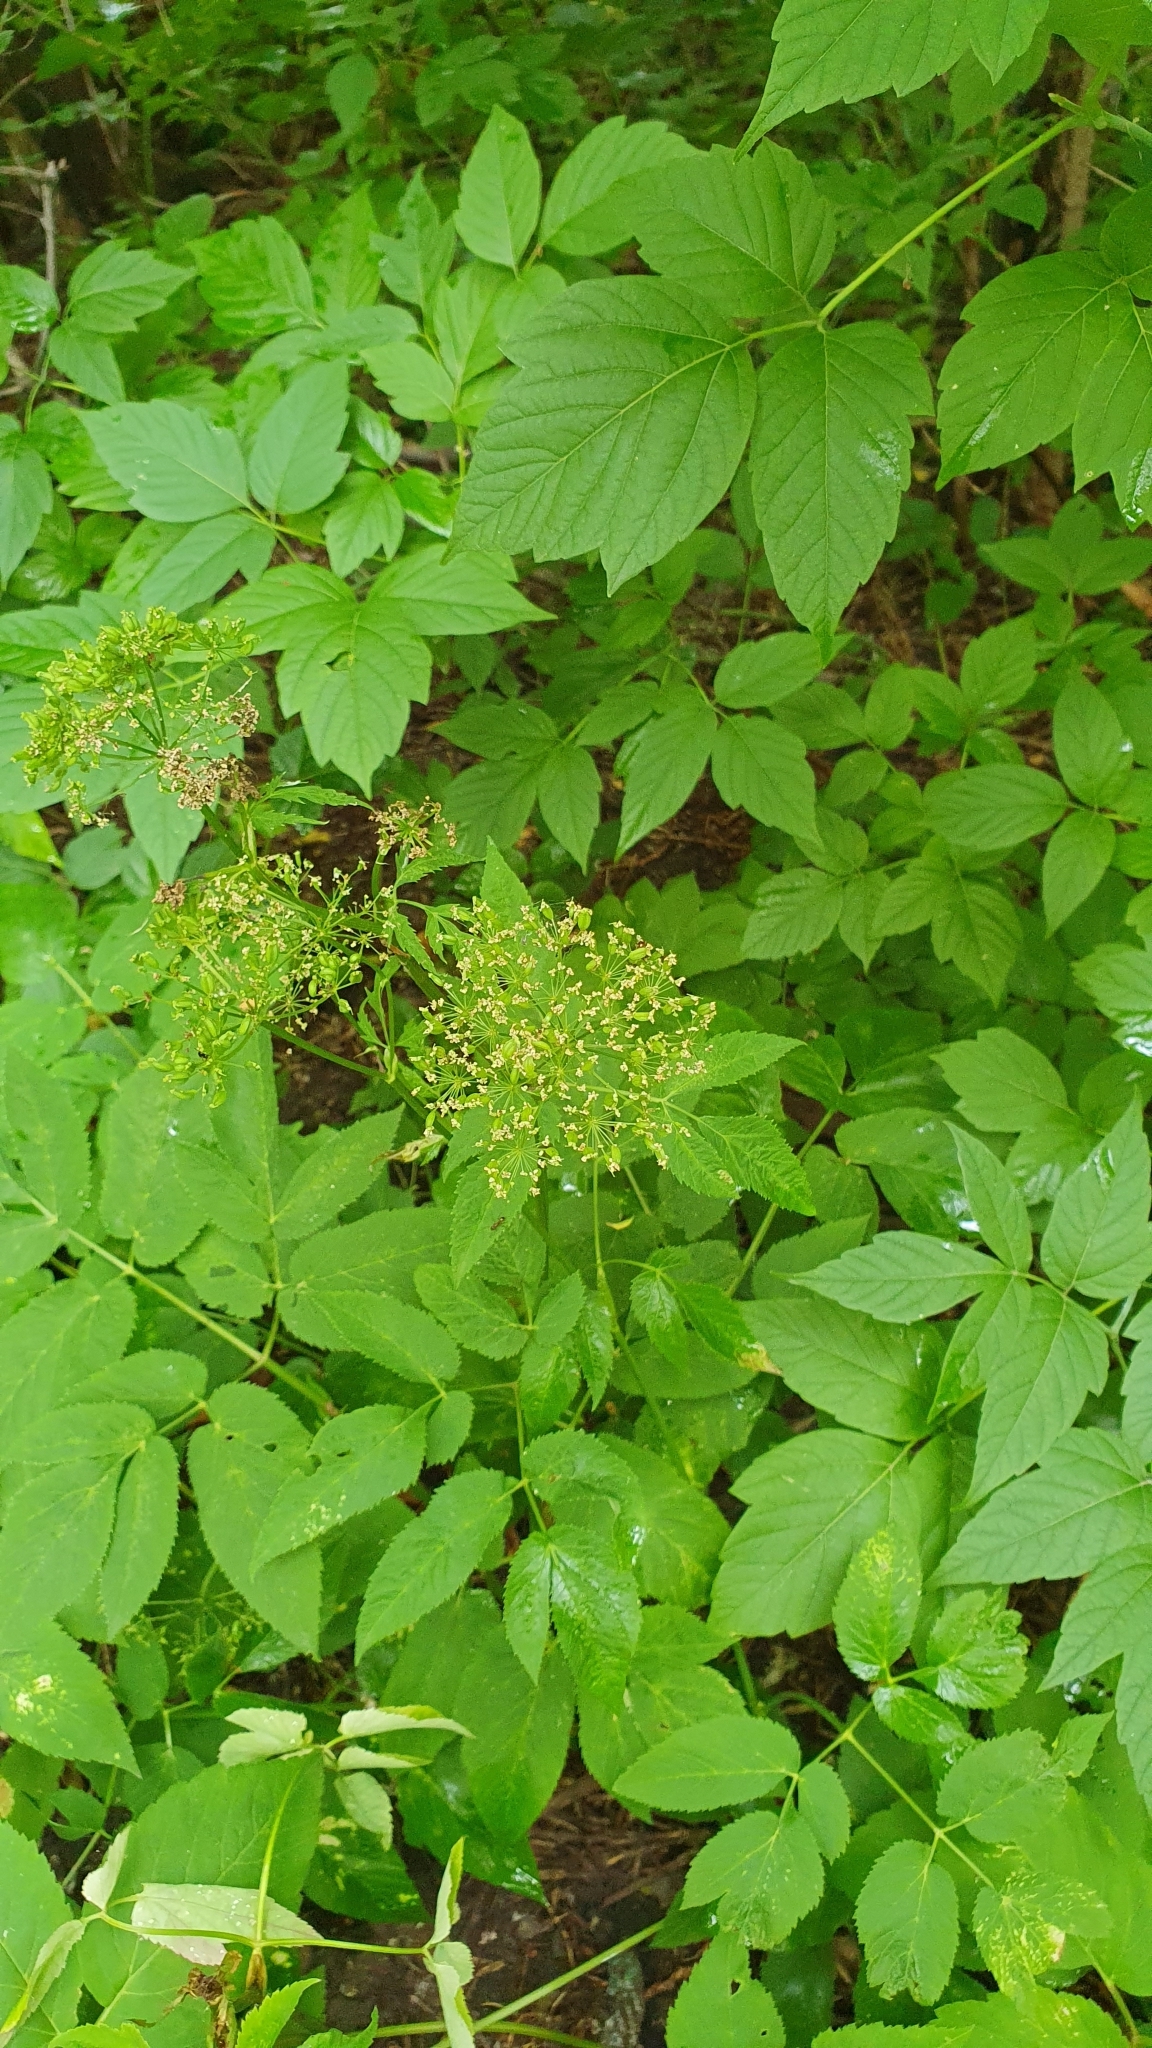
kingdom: Plantae
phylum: Tracheophyta
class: Magnoliopsida
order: Apiales
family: Apiaceae
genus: Aegopodium
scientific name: Aegopodium podagraria
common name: Ground-elder
